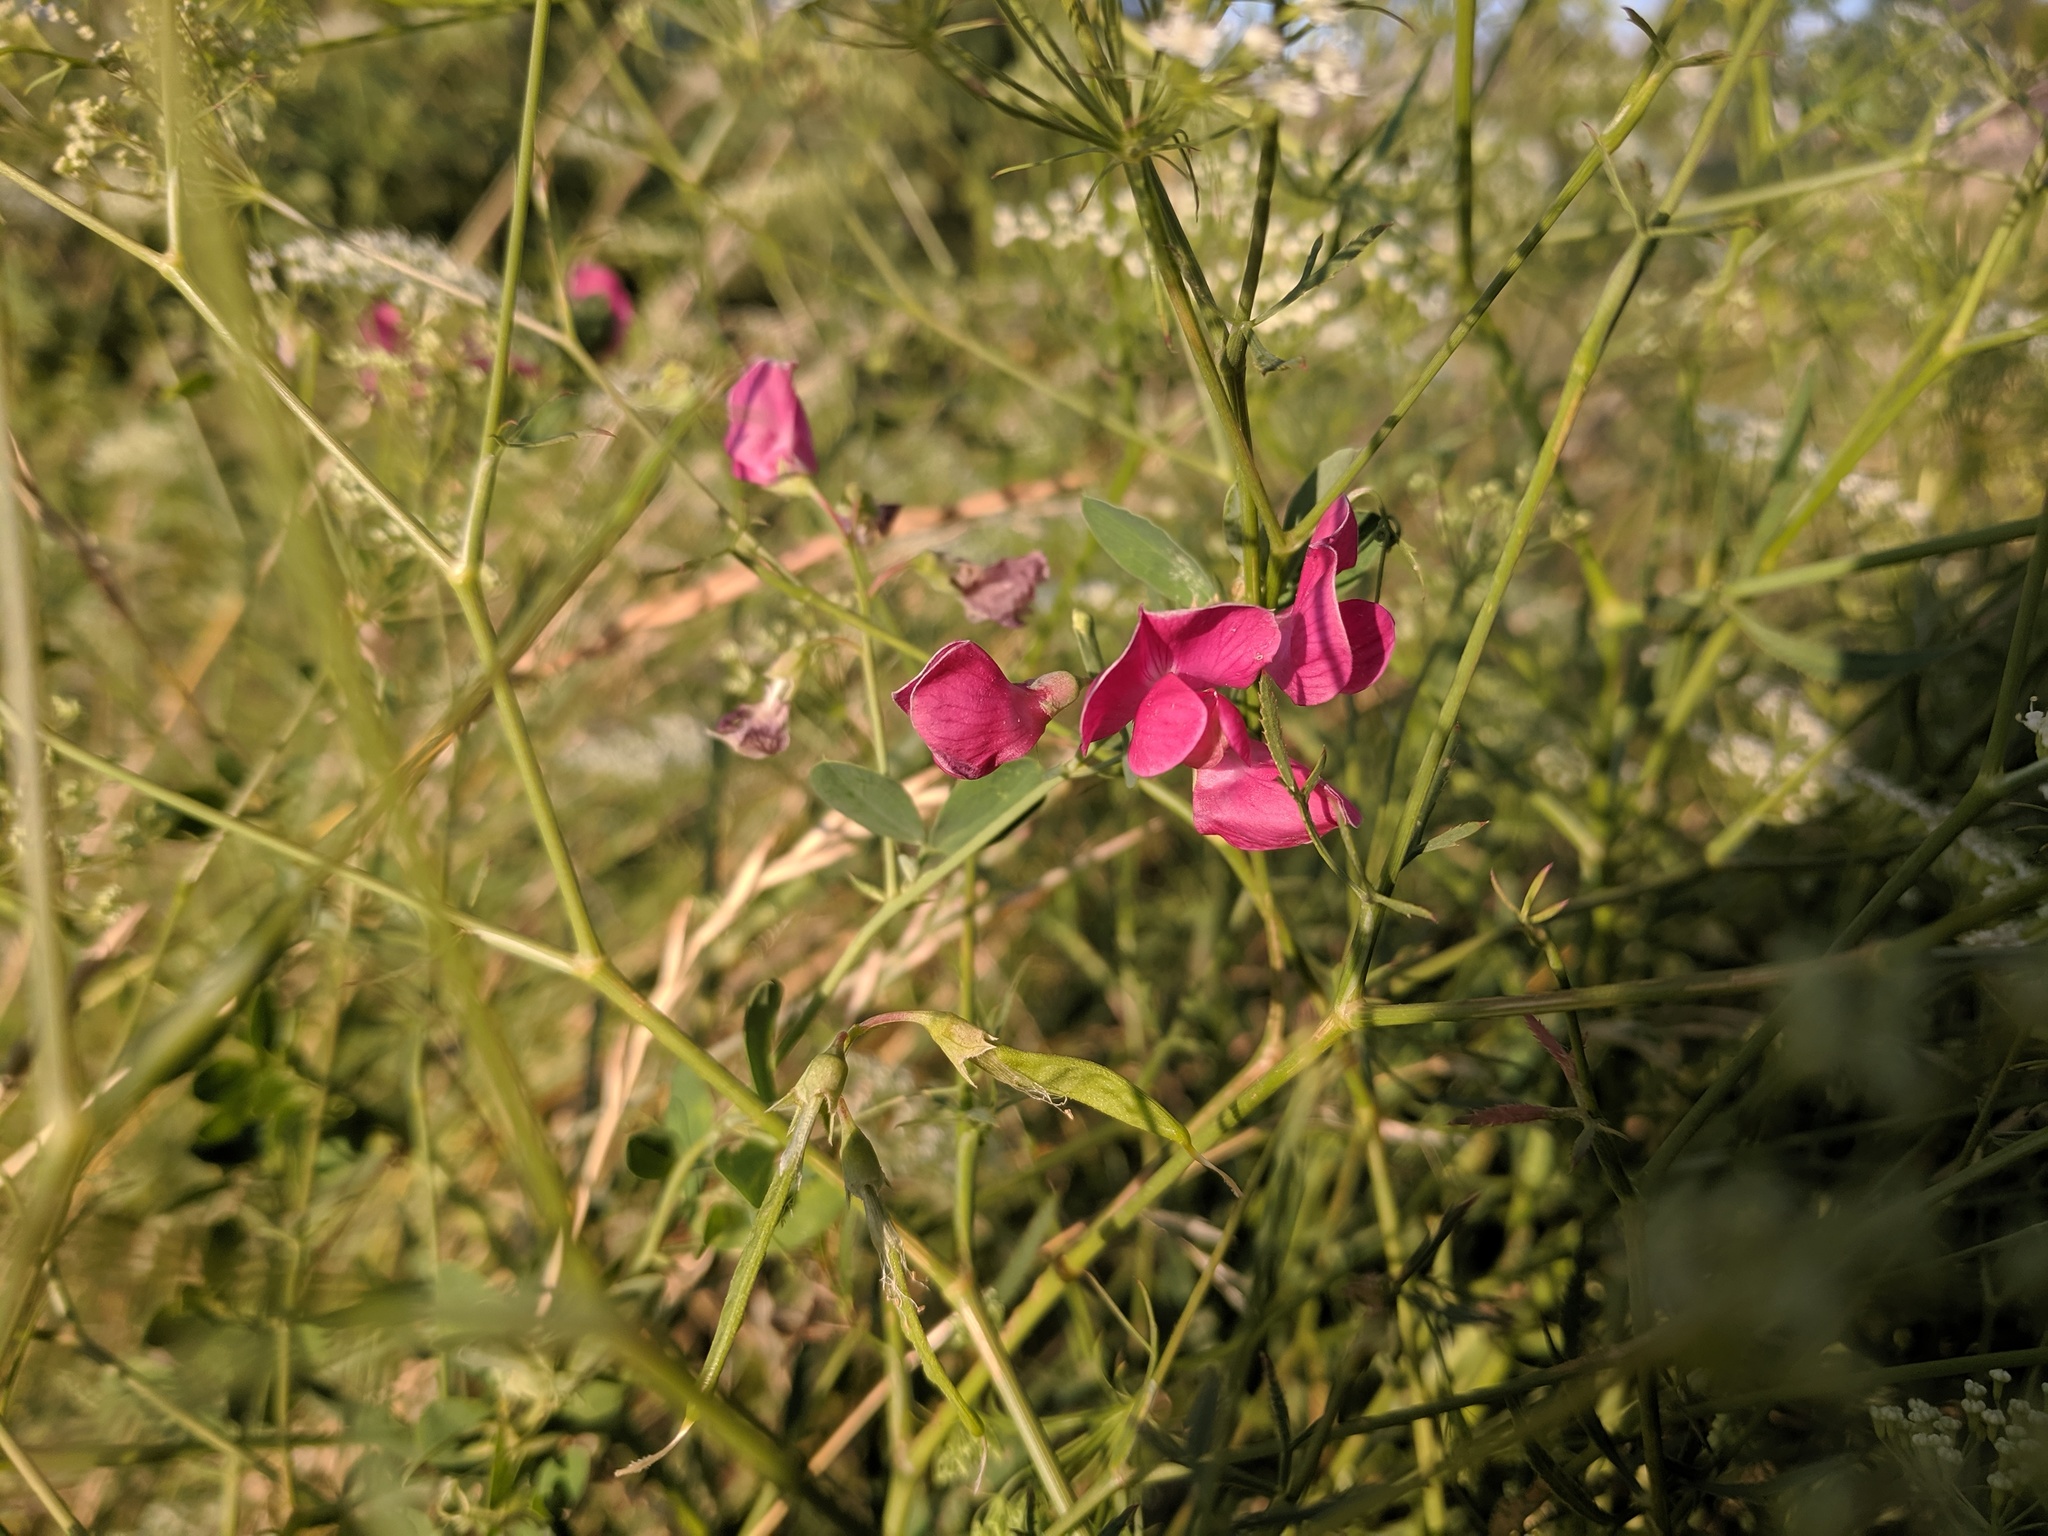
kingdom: Plantae
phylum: Tracheophyta
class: Magnoliopsida
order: Fabales
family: Fabaceae
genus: Lathyrus
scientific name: Lathyrus tuberosus
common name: Tuberous pea
